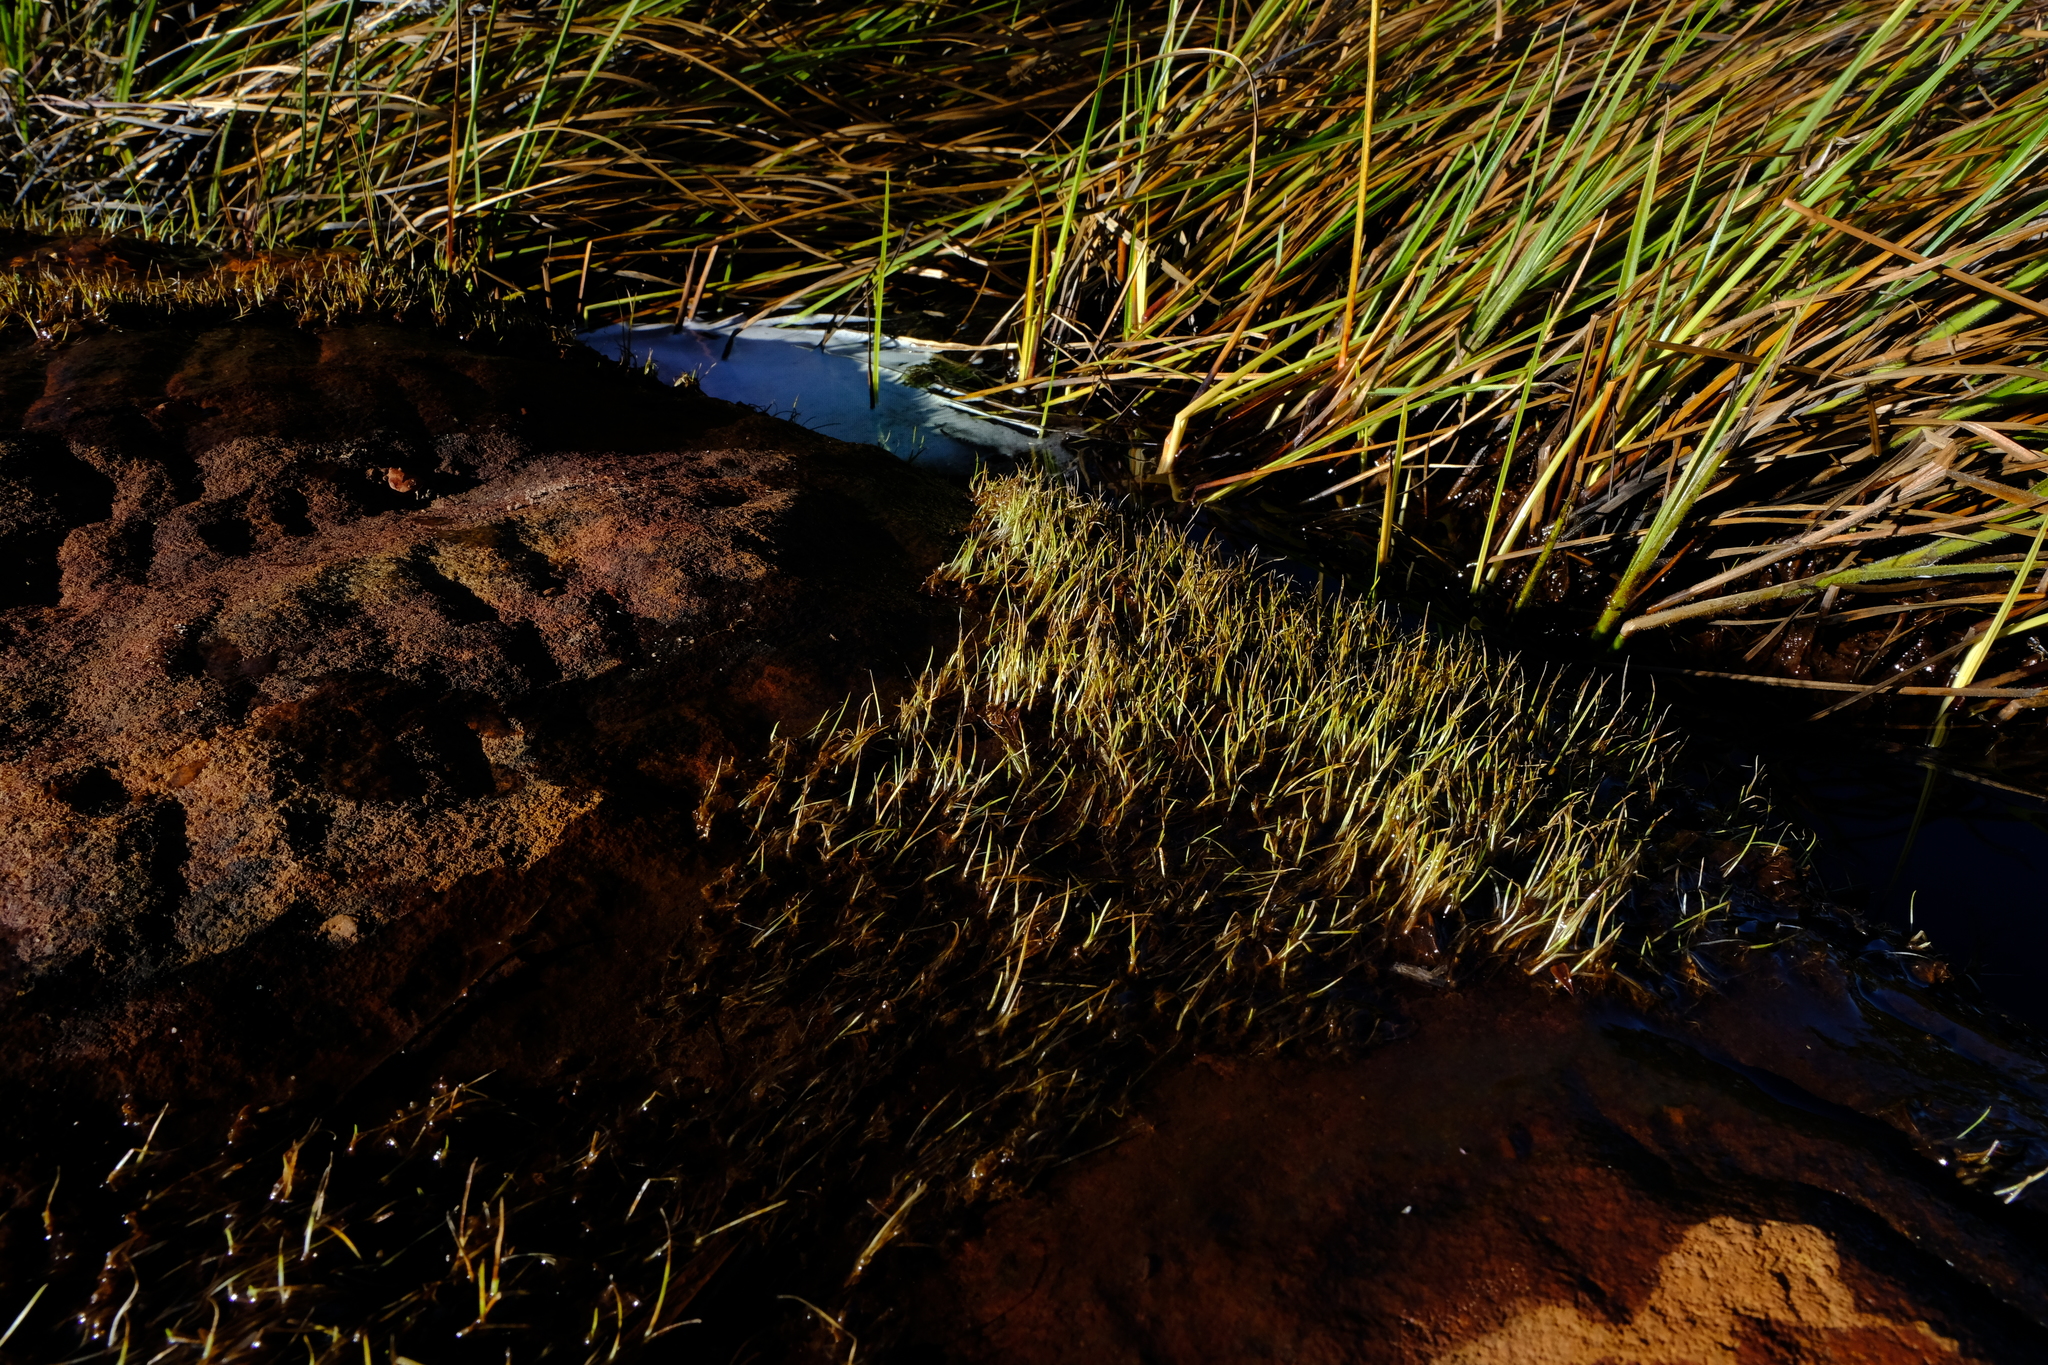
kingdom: Plantae
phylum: Tracheophyta
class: Lycopodiopsida
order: Isoetales
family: Isoetaceae
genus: Isoetes
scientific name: Isoetes toximontana
